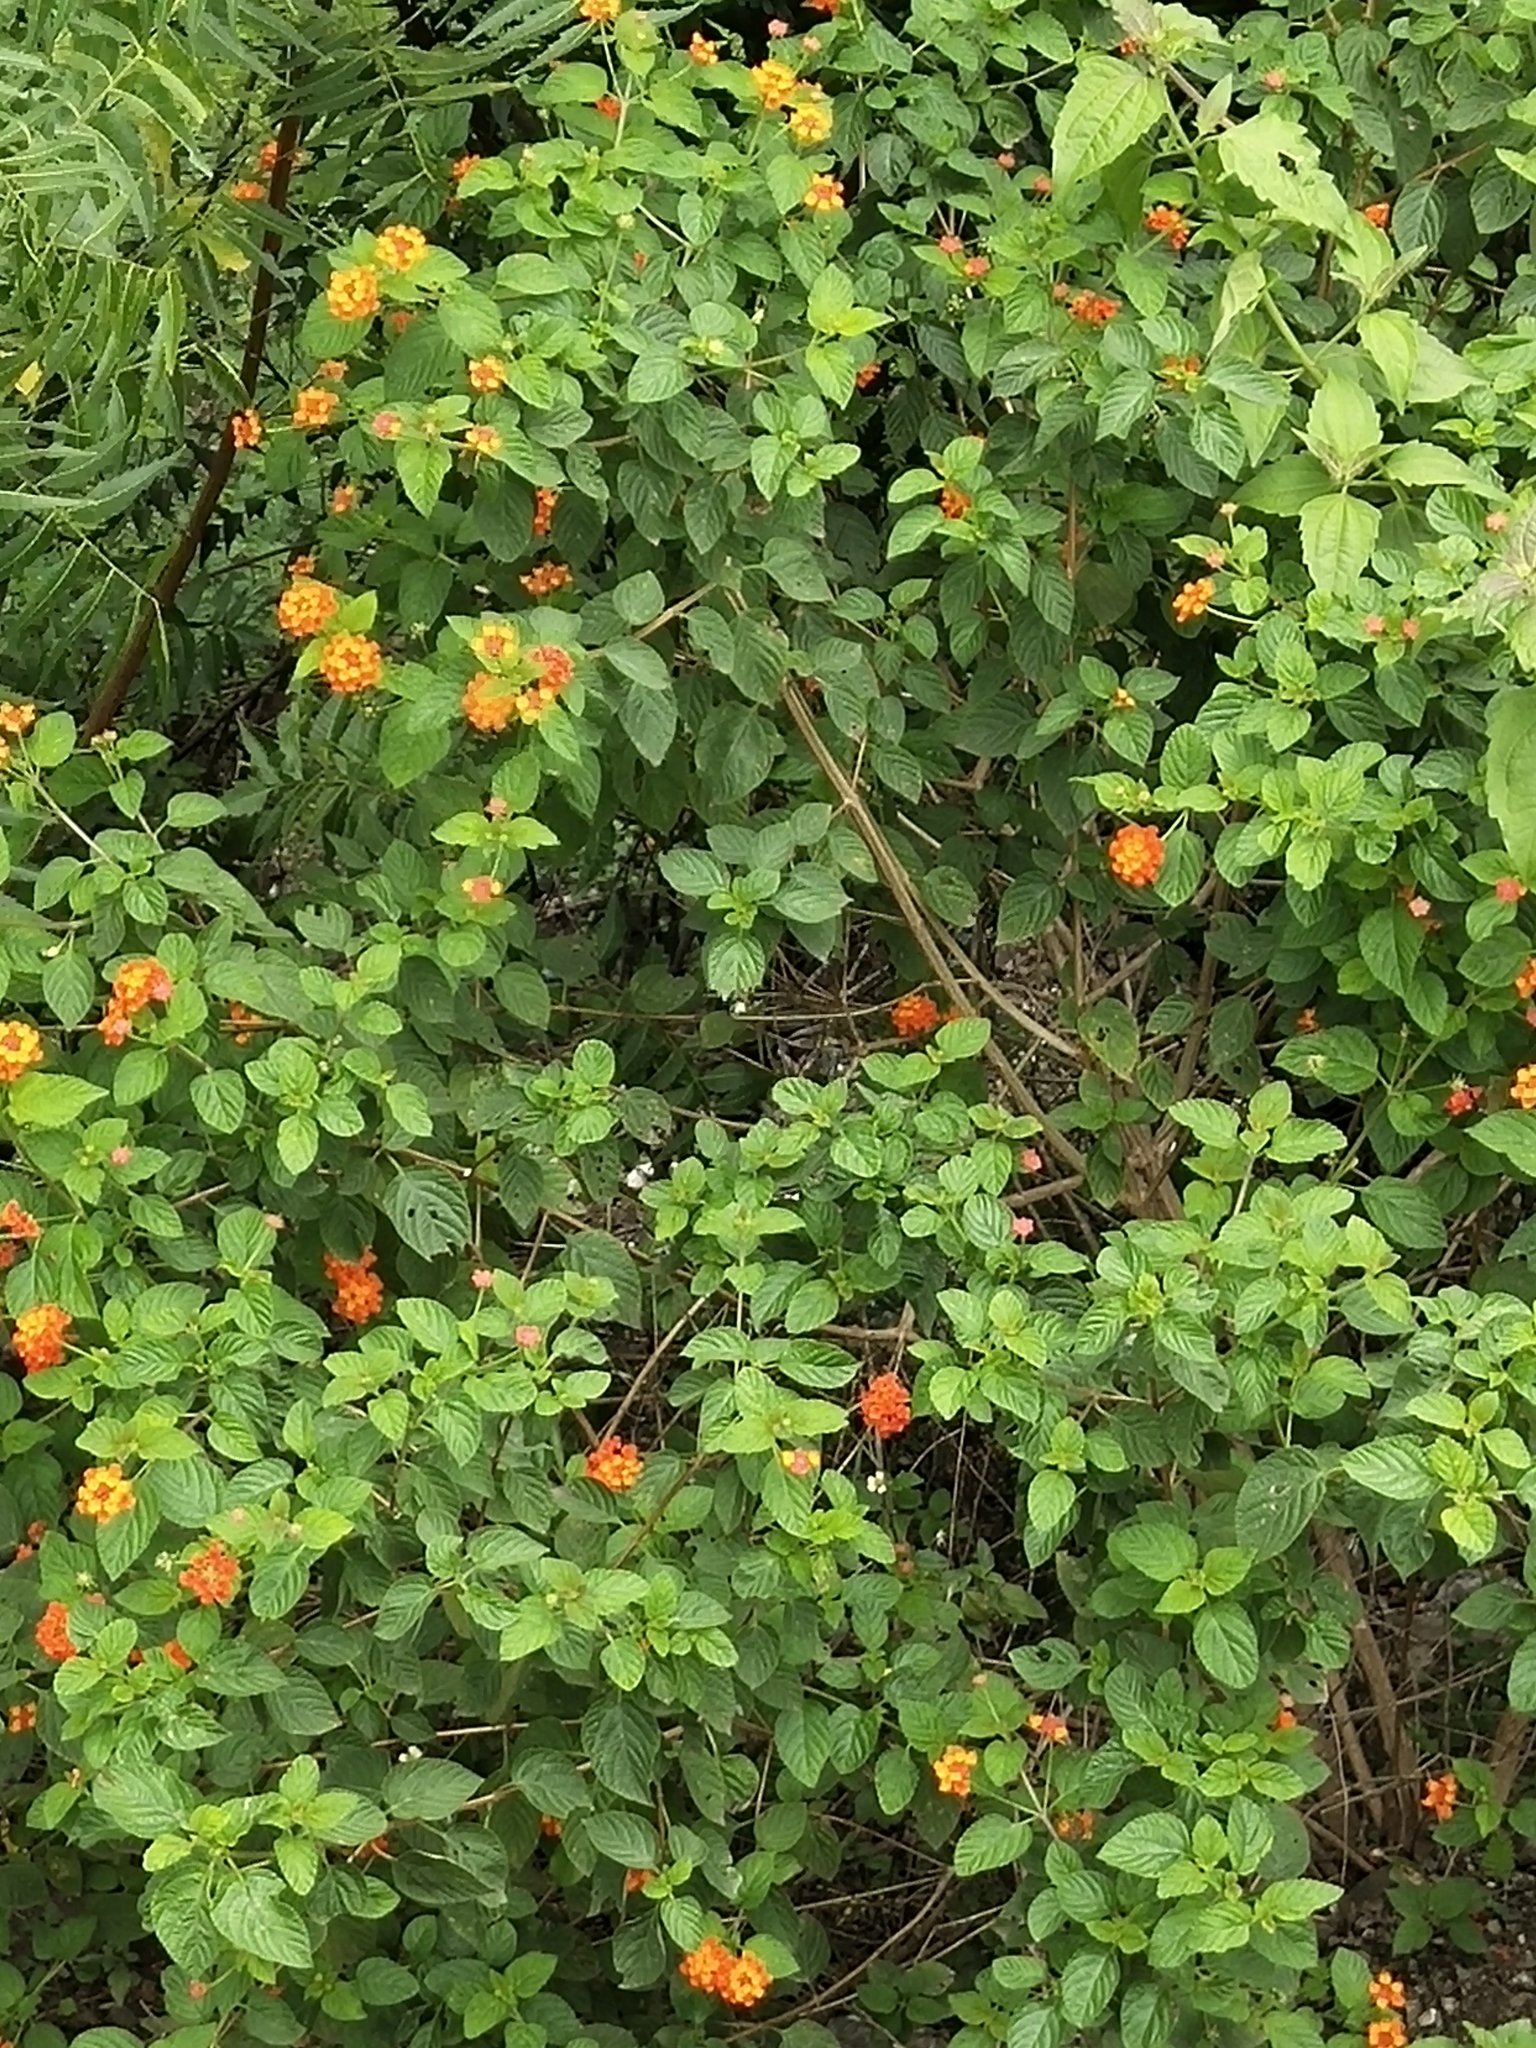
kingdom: Plantae
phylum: Tracheophyta
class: Magnoliopsida
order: Lamiales
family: Verbenaceae
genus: Lantana
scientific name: Lantana camara
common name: Lantana
